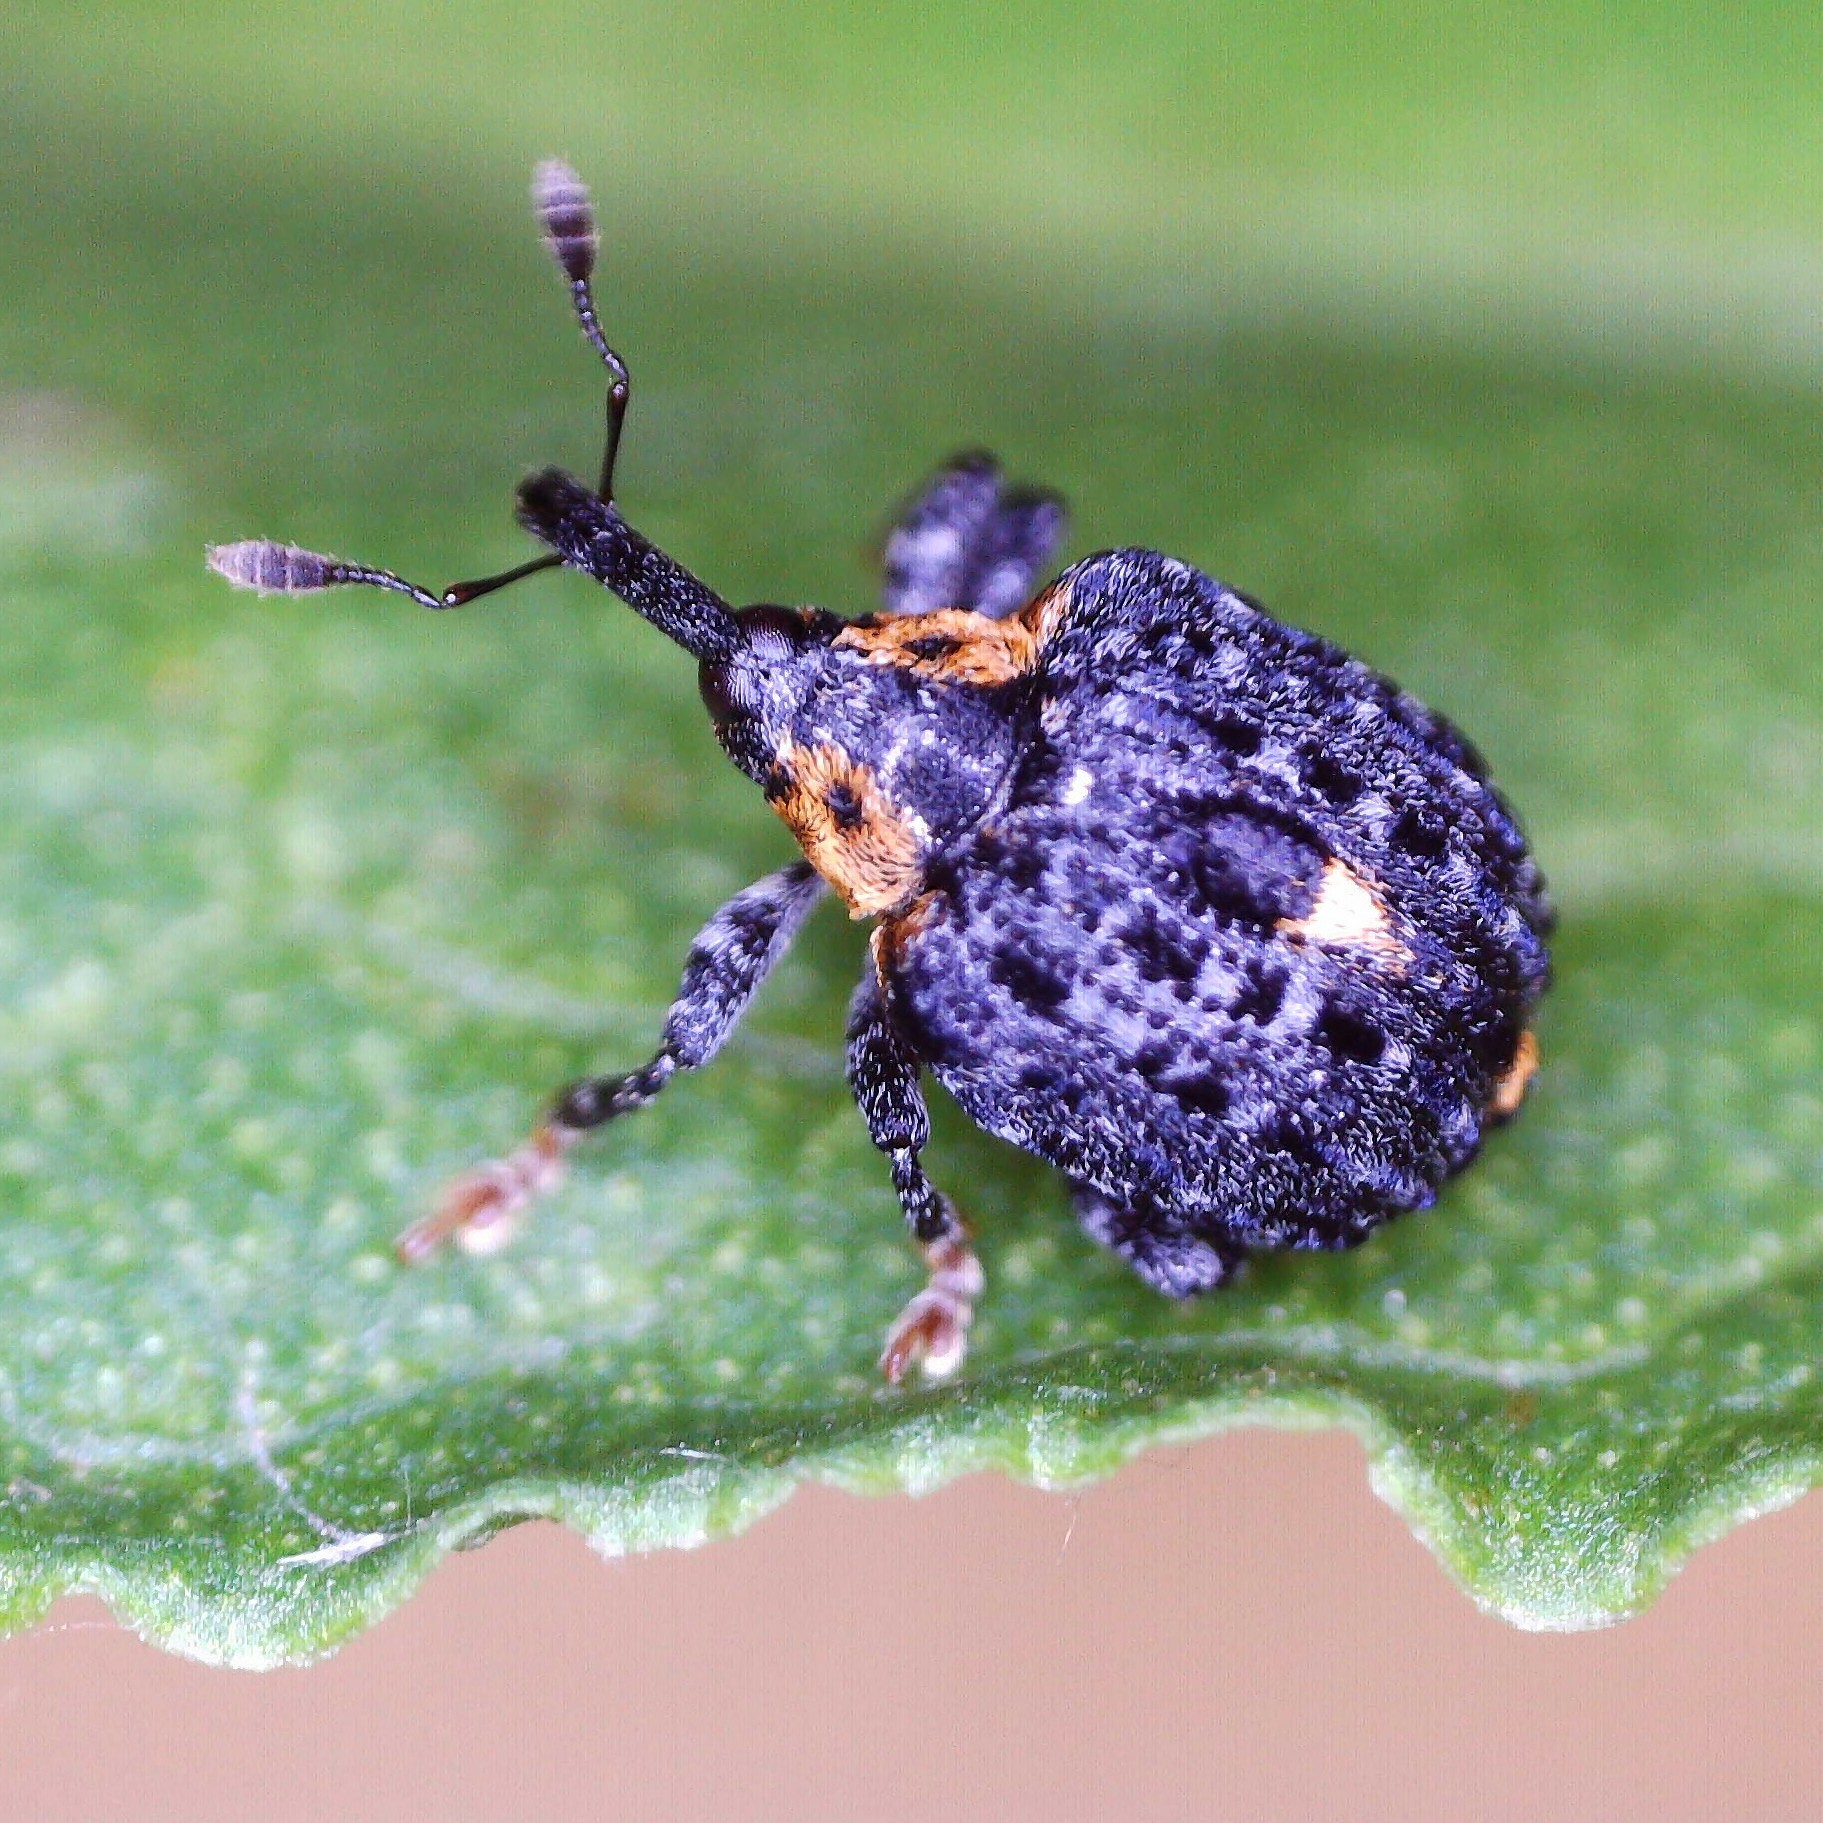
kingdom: Animalia
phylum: Arthropoda
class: Insecta
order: Coleoptera
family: Curculionidae
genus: Cionus
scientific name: Cionus tuberculosus
